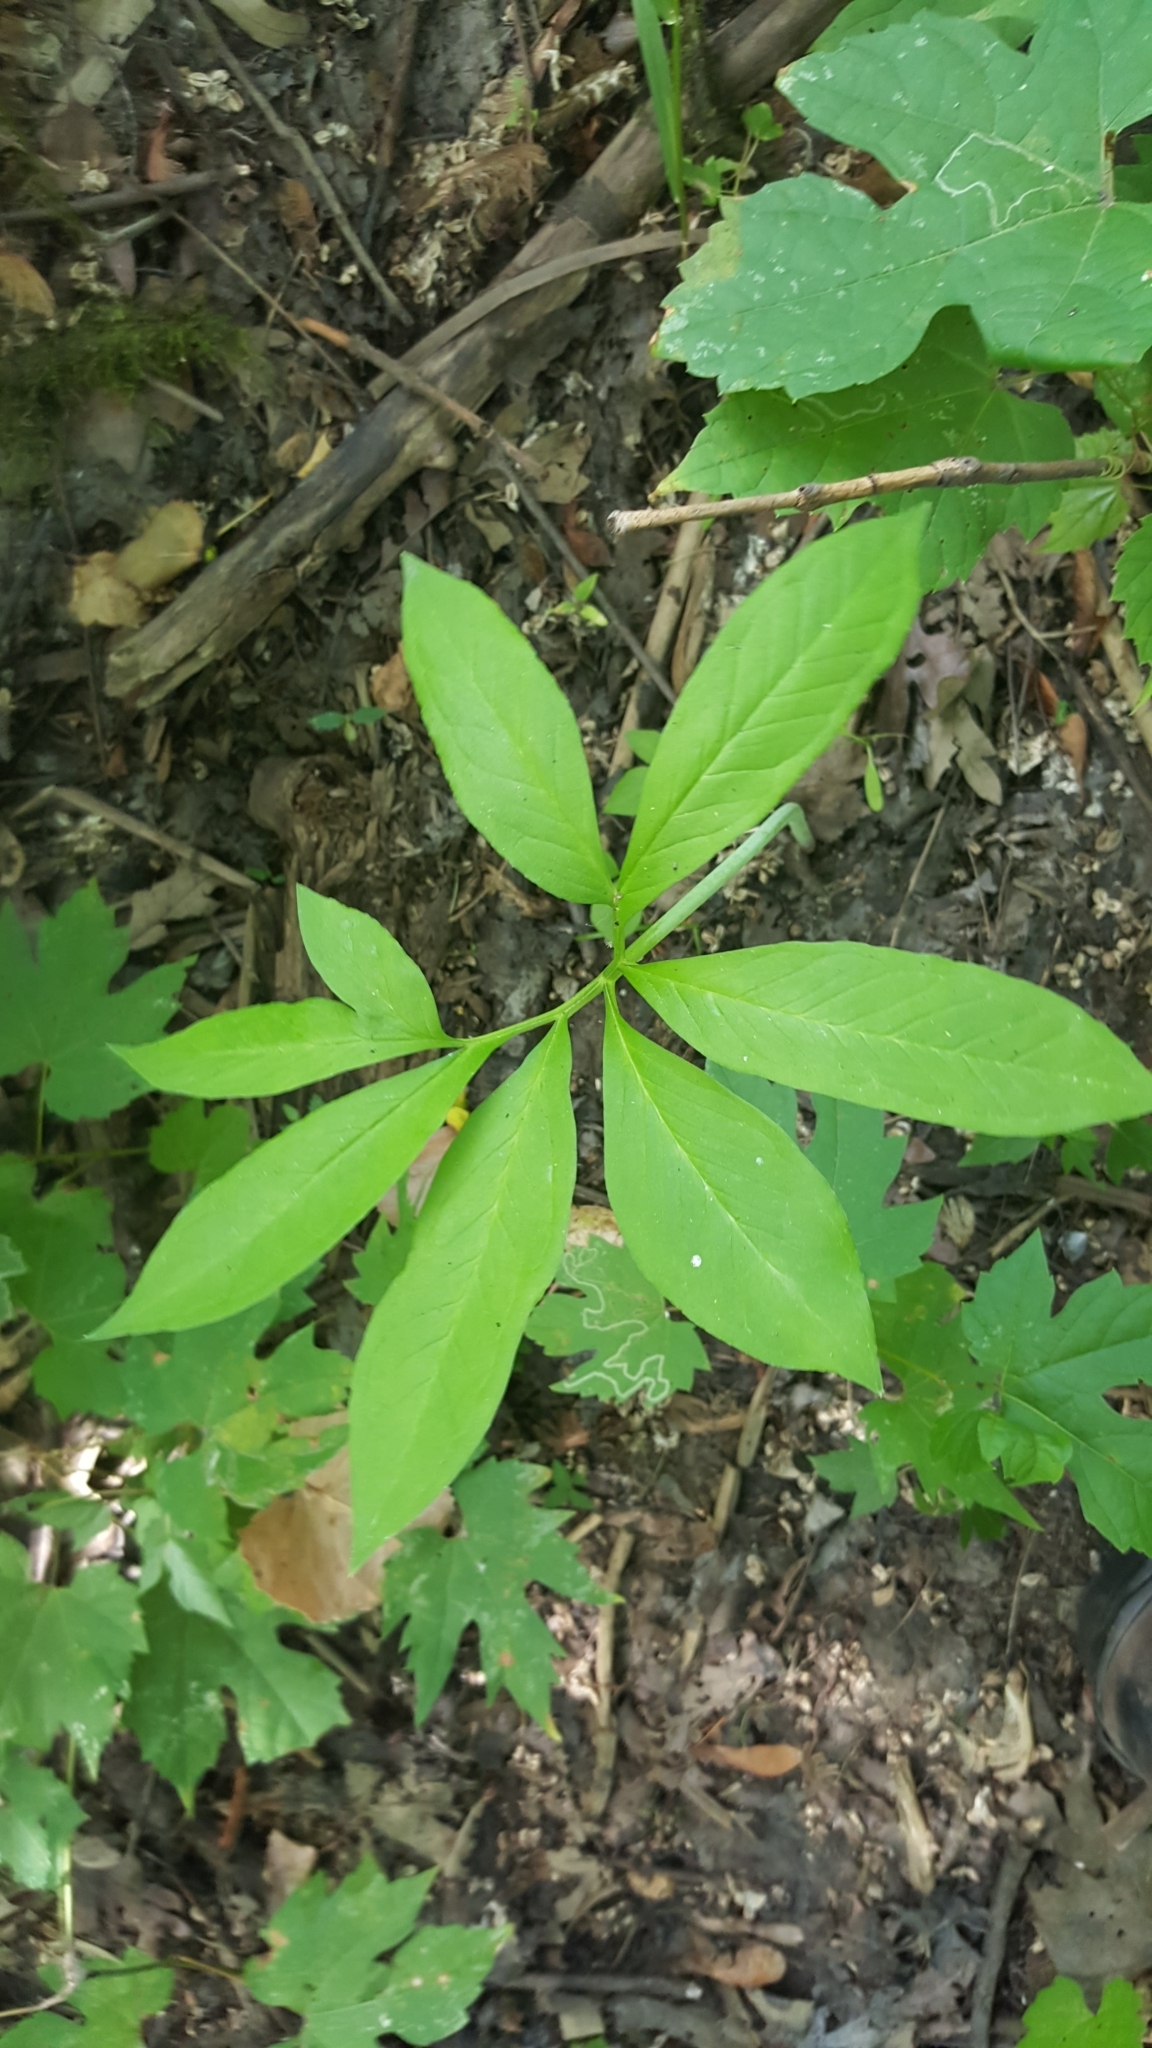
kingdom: Plantae
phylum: Tracheophyta
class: Liliopsida
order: Alismatales
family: Araceae
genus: Arisaema
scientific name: Arisaema dracontium
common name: Dragon-arum
